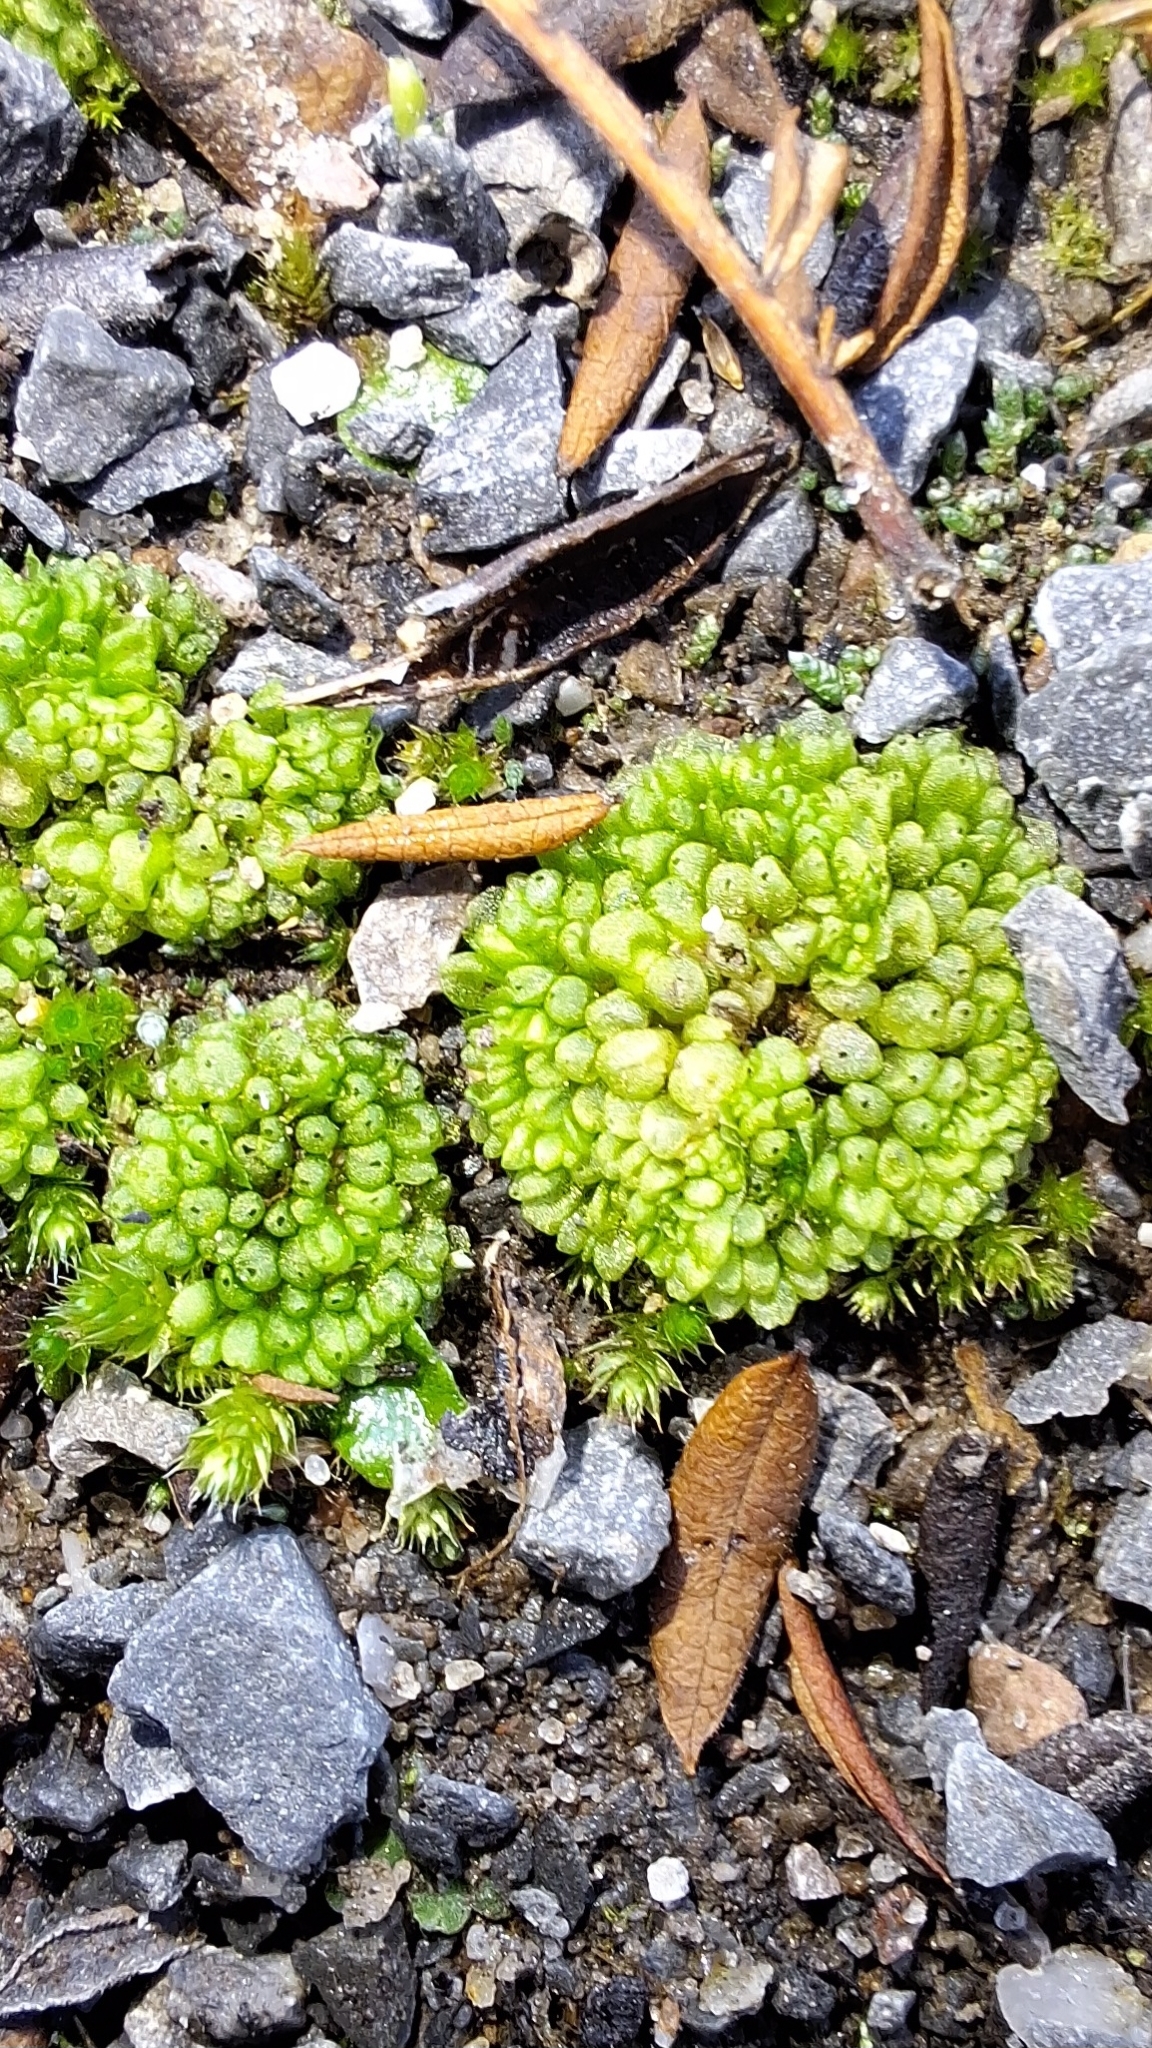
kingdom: Plantae
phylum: Marchantiophyta
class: Marchantiopsida
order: Sphaerocarpales
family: Sphaerocarpaceae
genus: Sphaerocarpos
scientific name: Sphaerocarpos texanus
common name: Texas balloonwort
